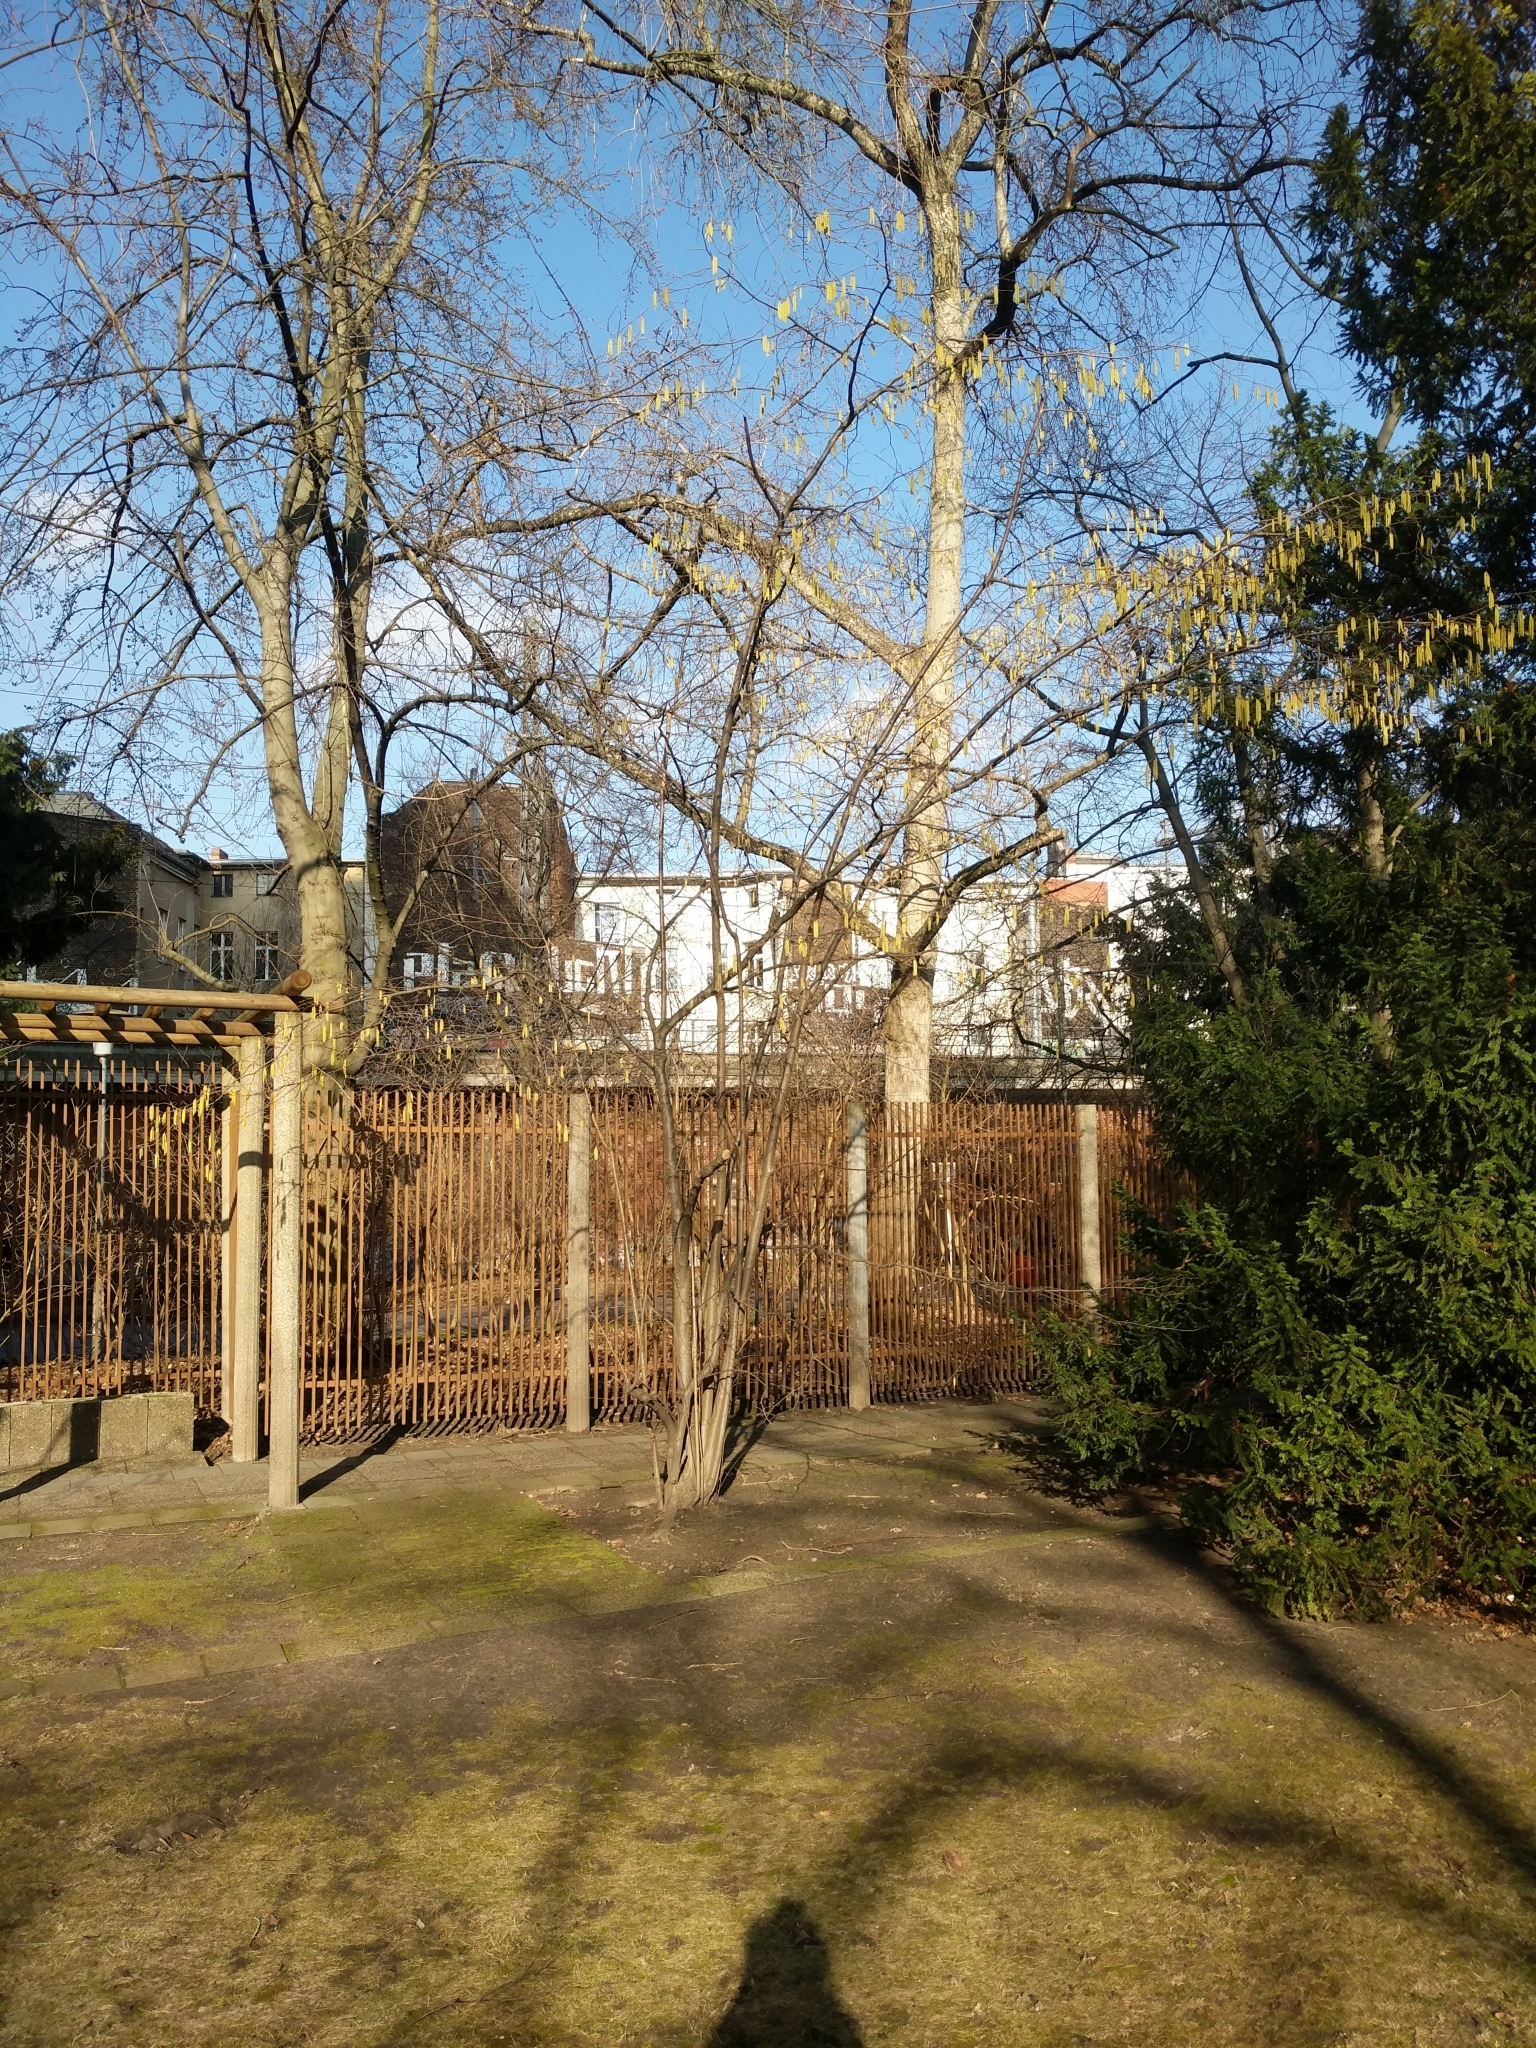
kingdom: Plantae
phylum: Tracheophyta
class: Magnoliopsida
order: Fagales
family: Betulaceae
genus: Corylus
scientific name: Corylus avellana
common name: European hazel
